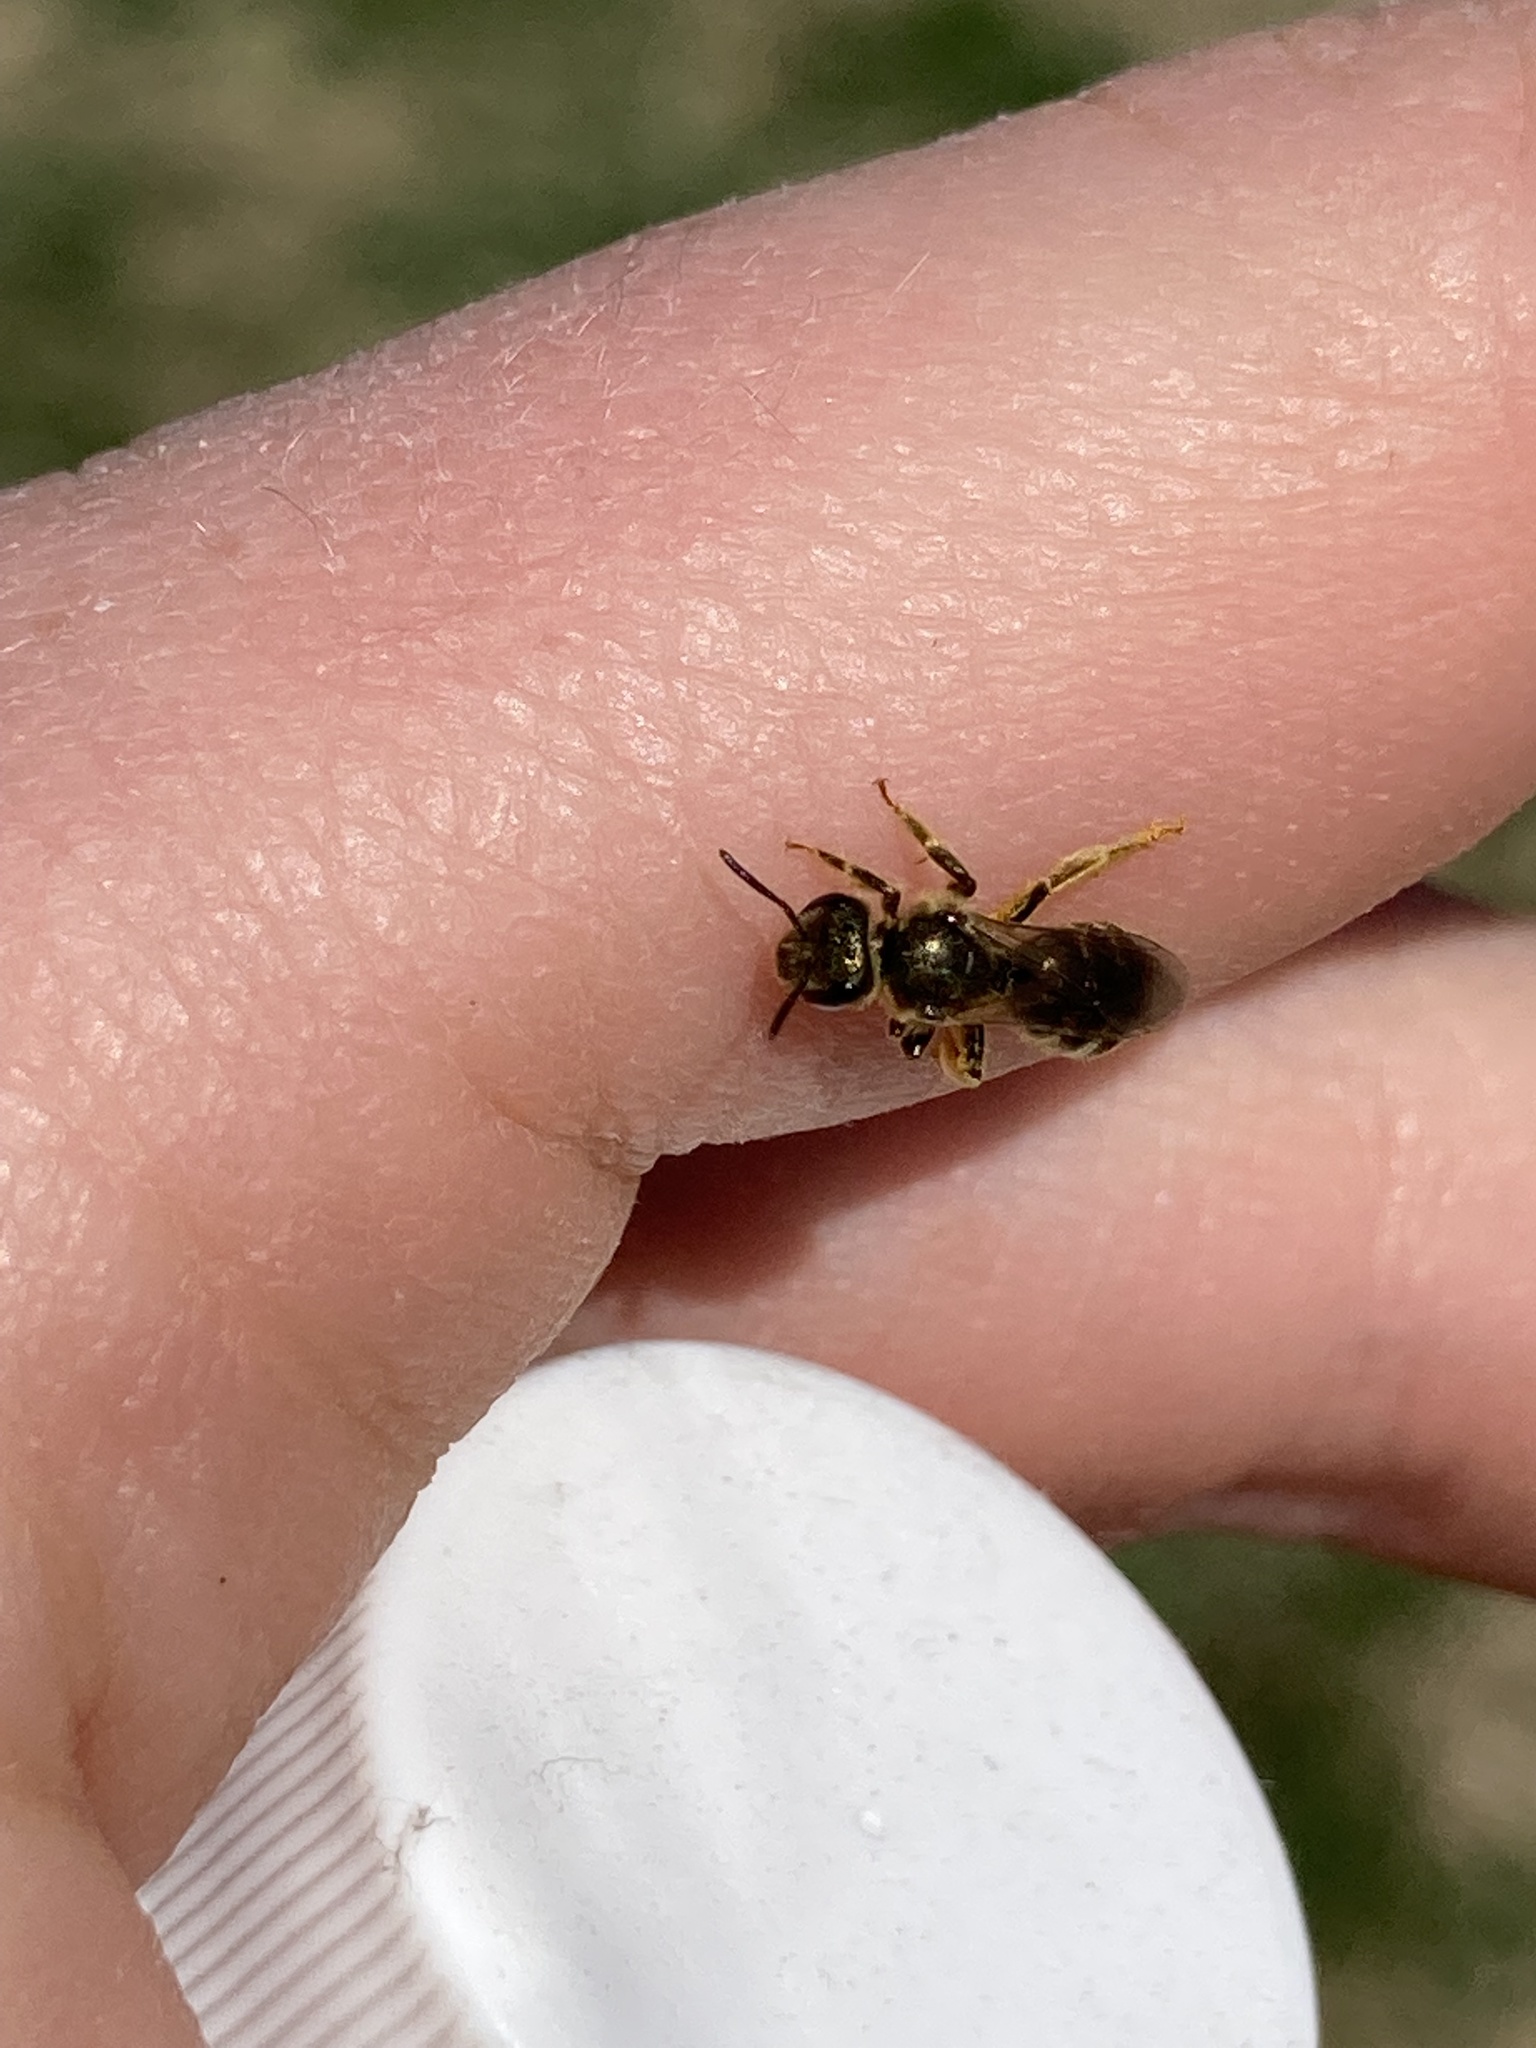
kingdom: Animalia
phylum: Arthropoda
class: Insecta
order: Hymenoptera
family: Halictidae
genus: Halictus
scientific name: Halictus confusus
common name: Southern bronze furrow bee
